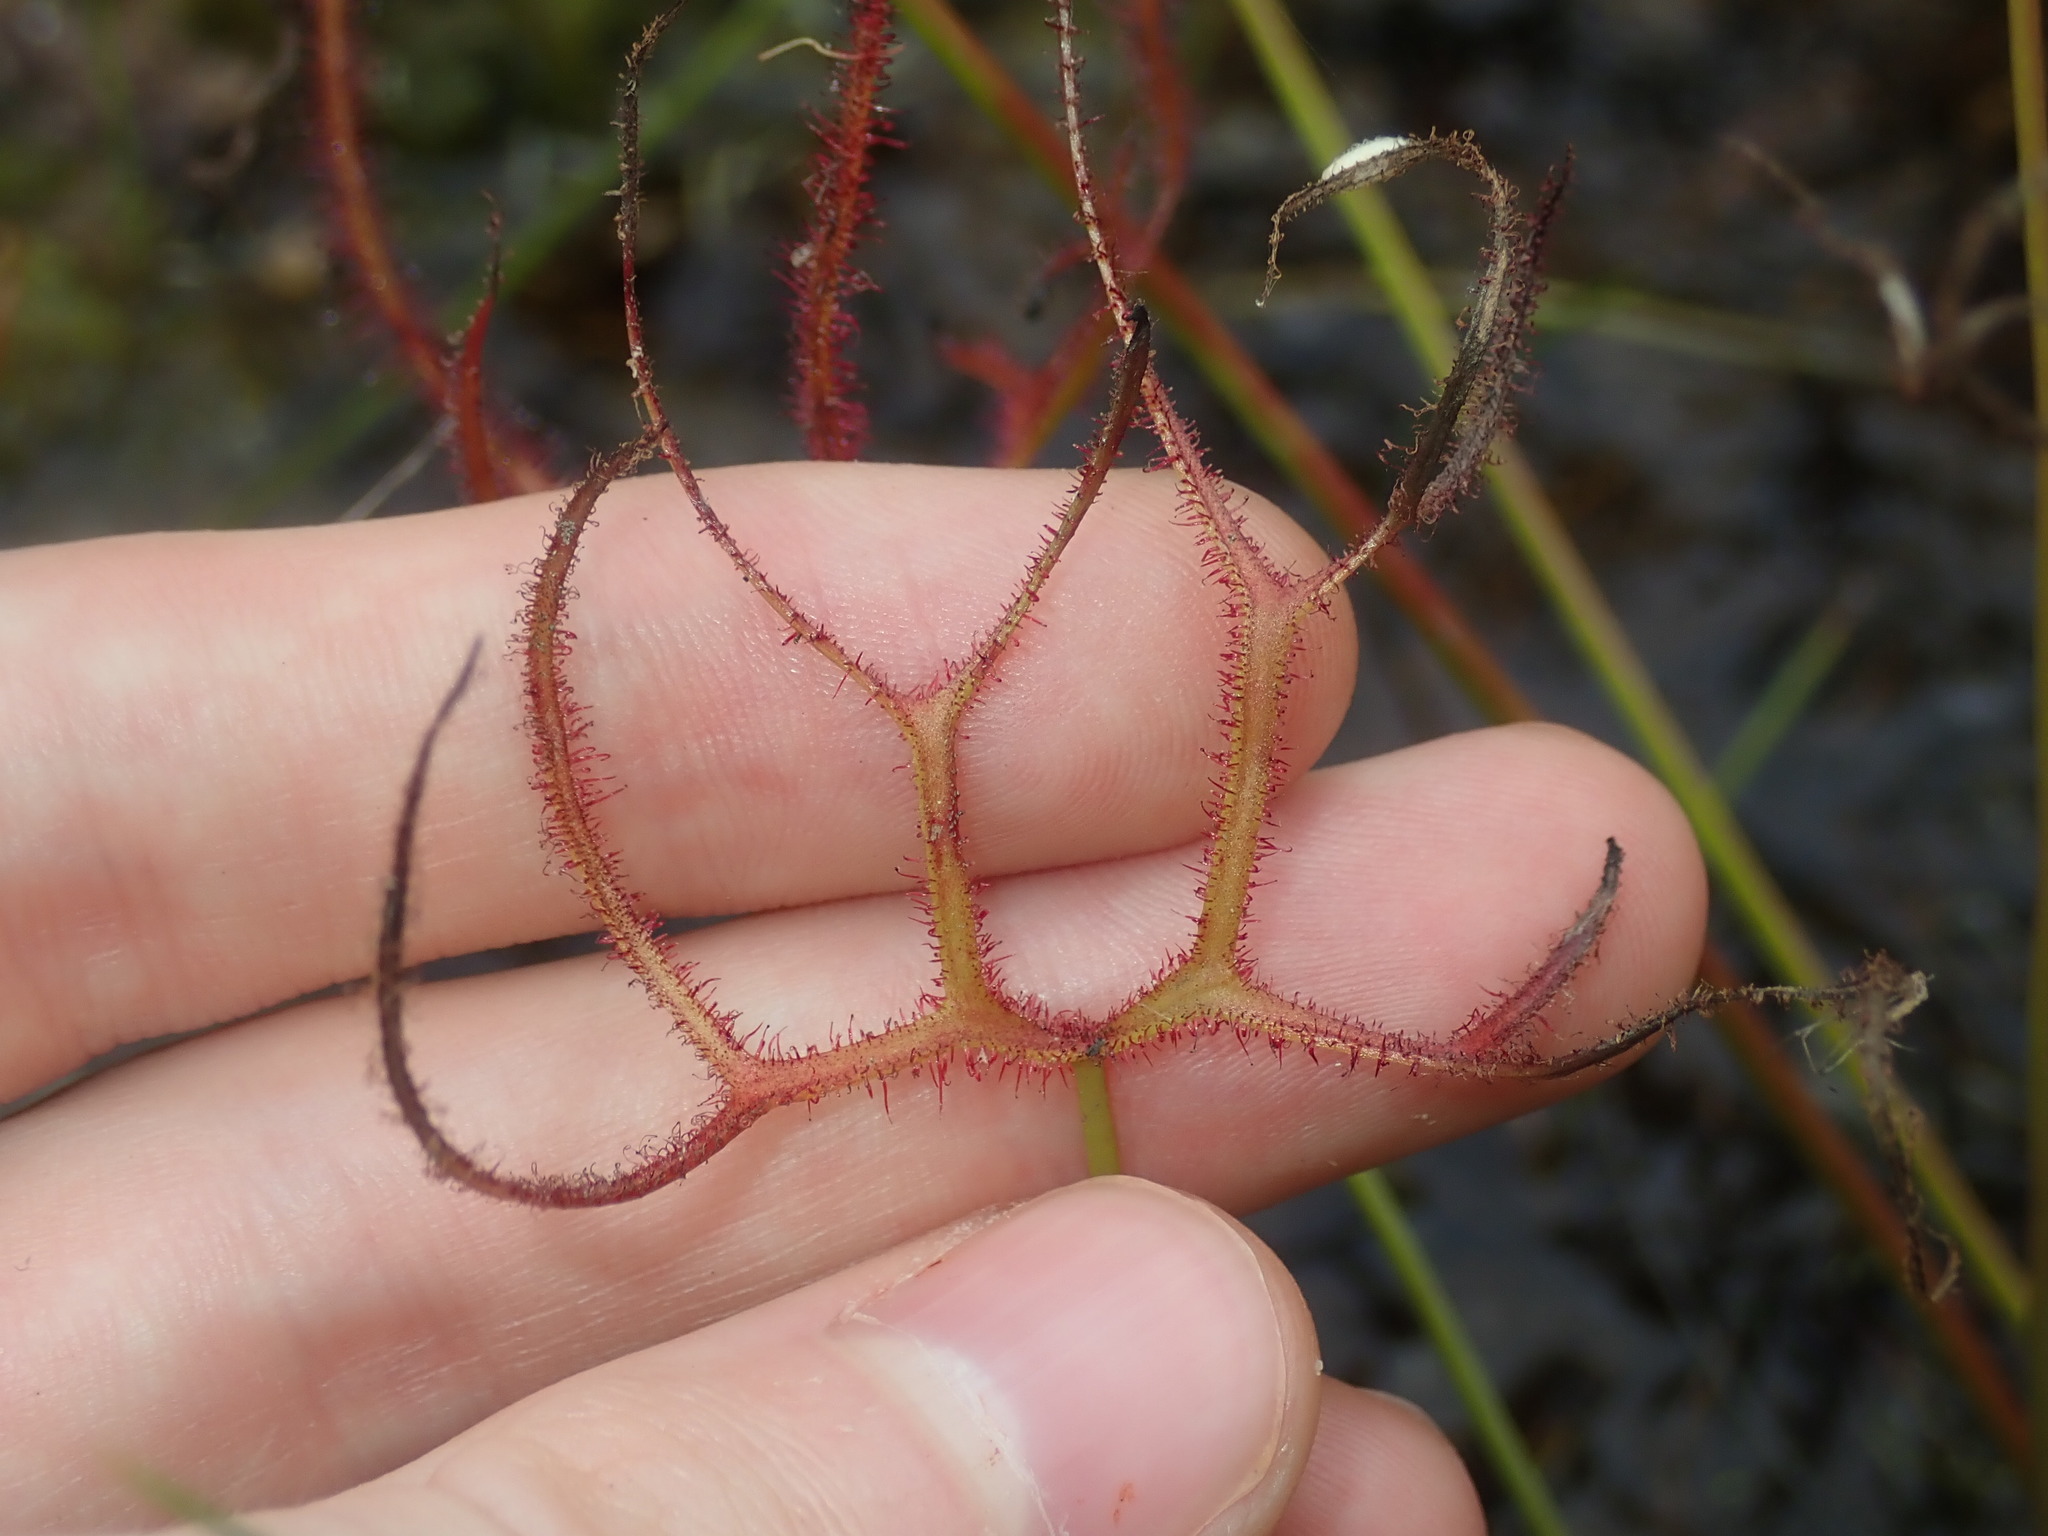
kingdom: Plantae
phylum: Tracheophyta
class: Magnoliopsida
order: Caryophyllales
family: Droseraceae
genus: Drosera
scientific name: Drosera binata
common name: Forked sundew
